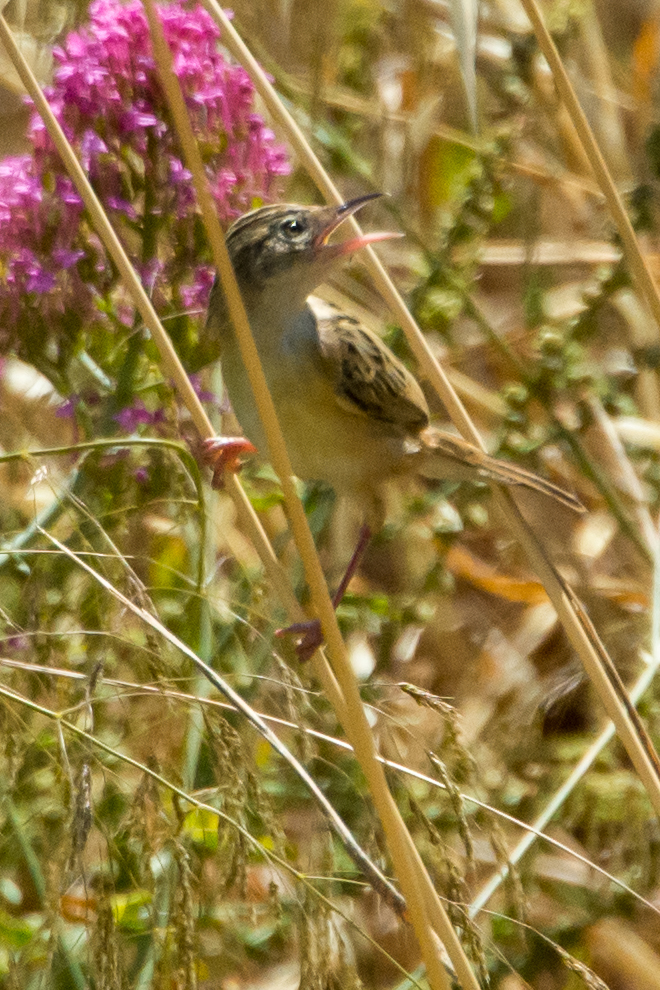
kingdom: Animalia
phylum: Chordata
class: Aves
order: Passeriformes
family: Cisticolidae
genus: Cisticola
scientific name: Cisticola juncidis
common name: Zitting cisticola
